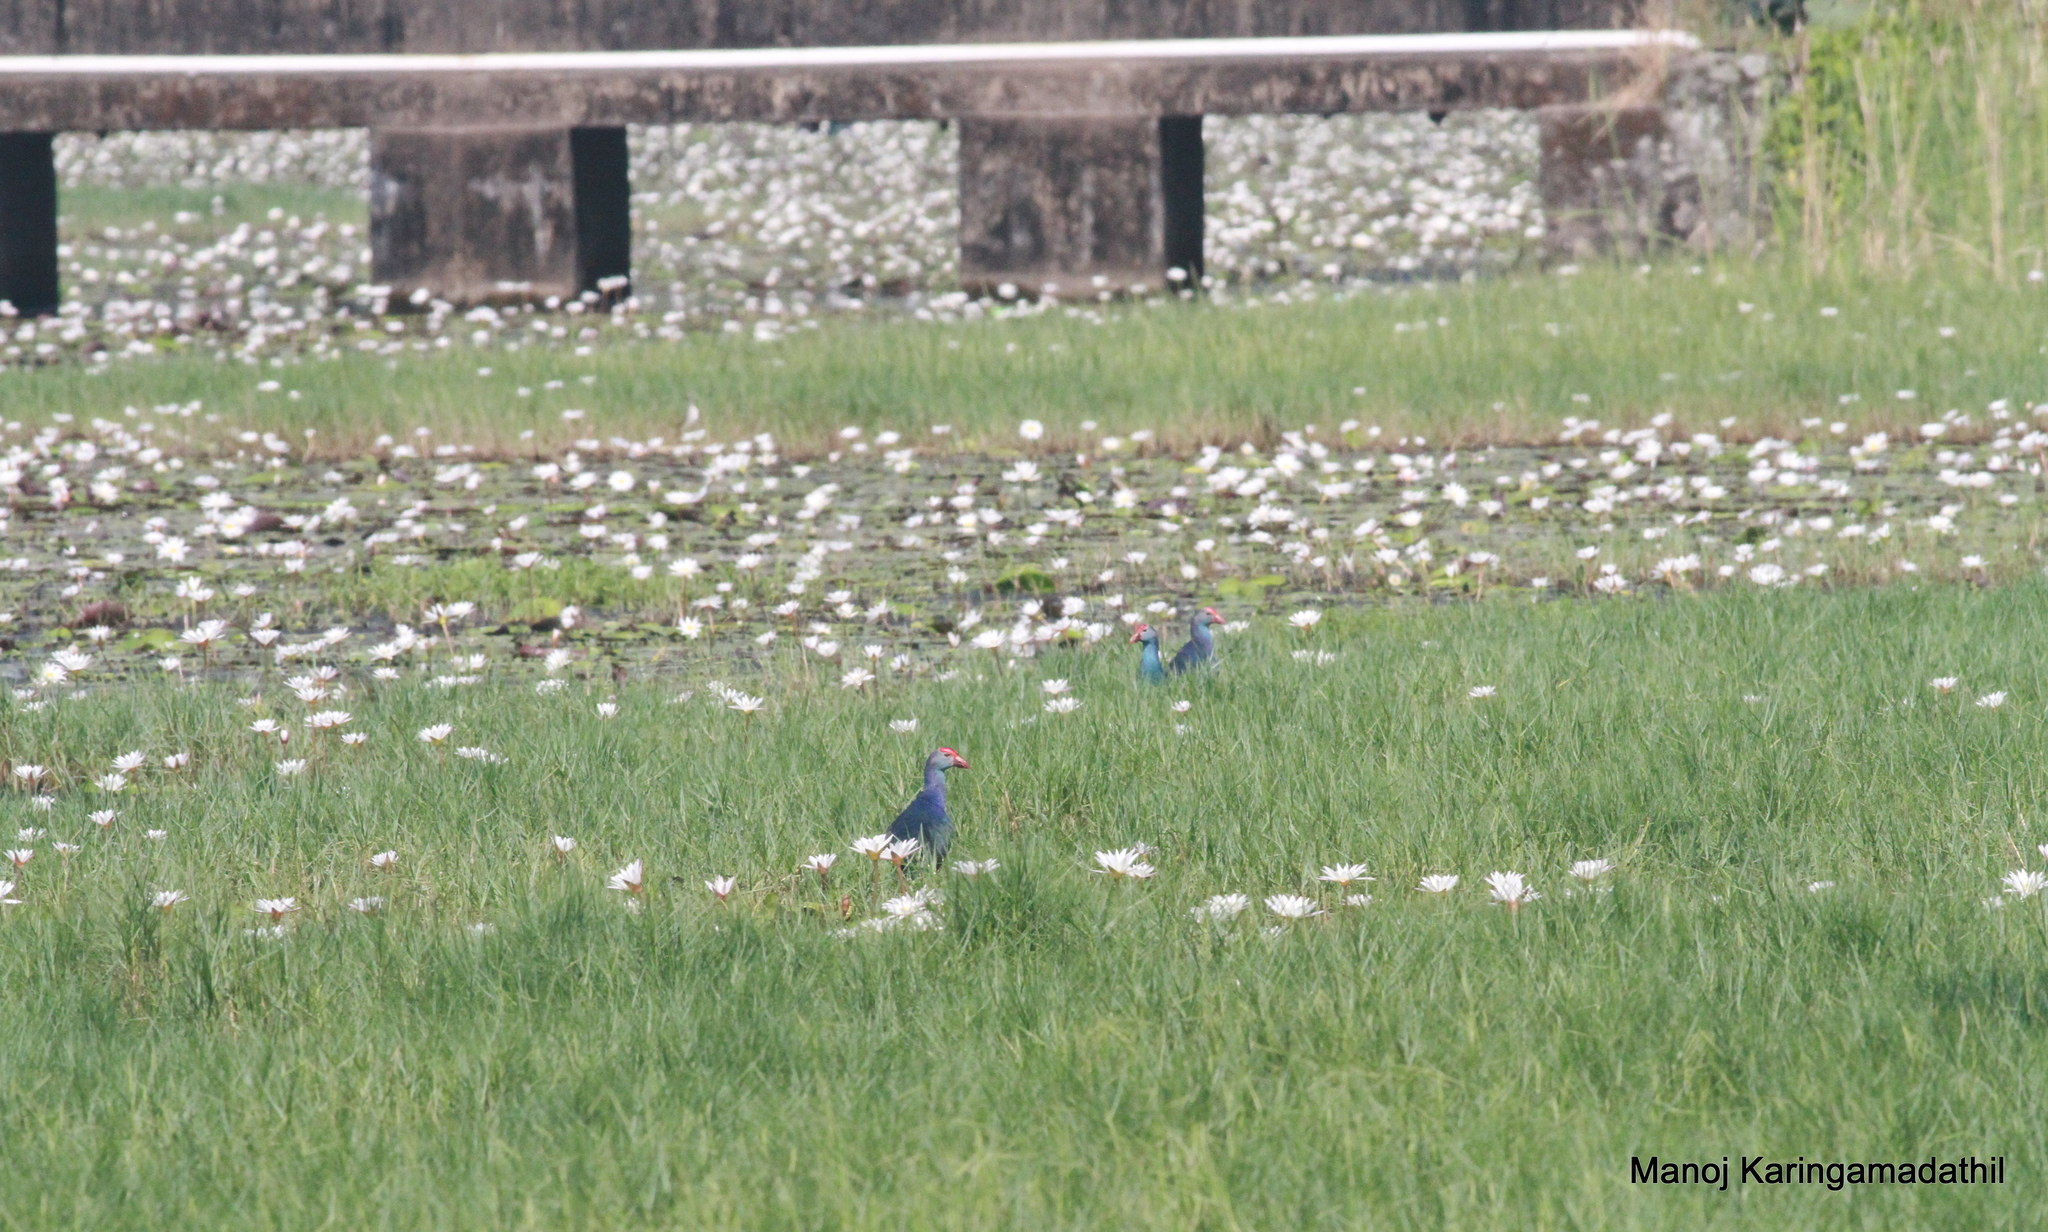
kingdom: Animalia
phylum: Chordata
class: Aves
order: Gruiformes
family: Rallidae
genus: Porphyrio
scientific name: Porphyrio porphyrio
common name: Purple swamphen
